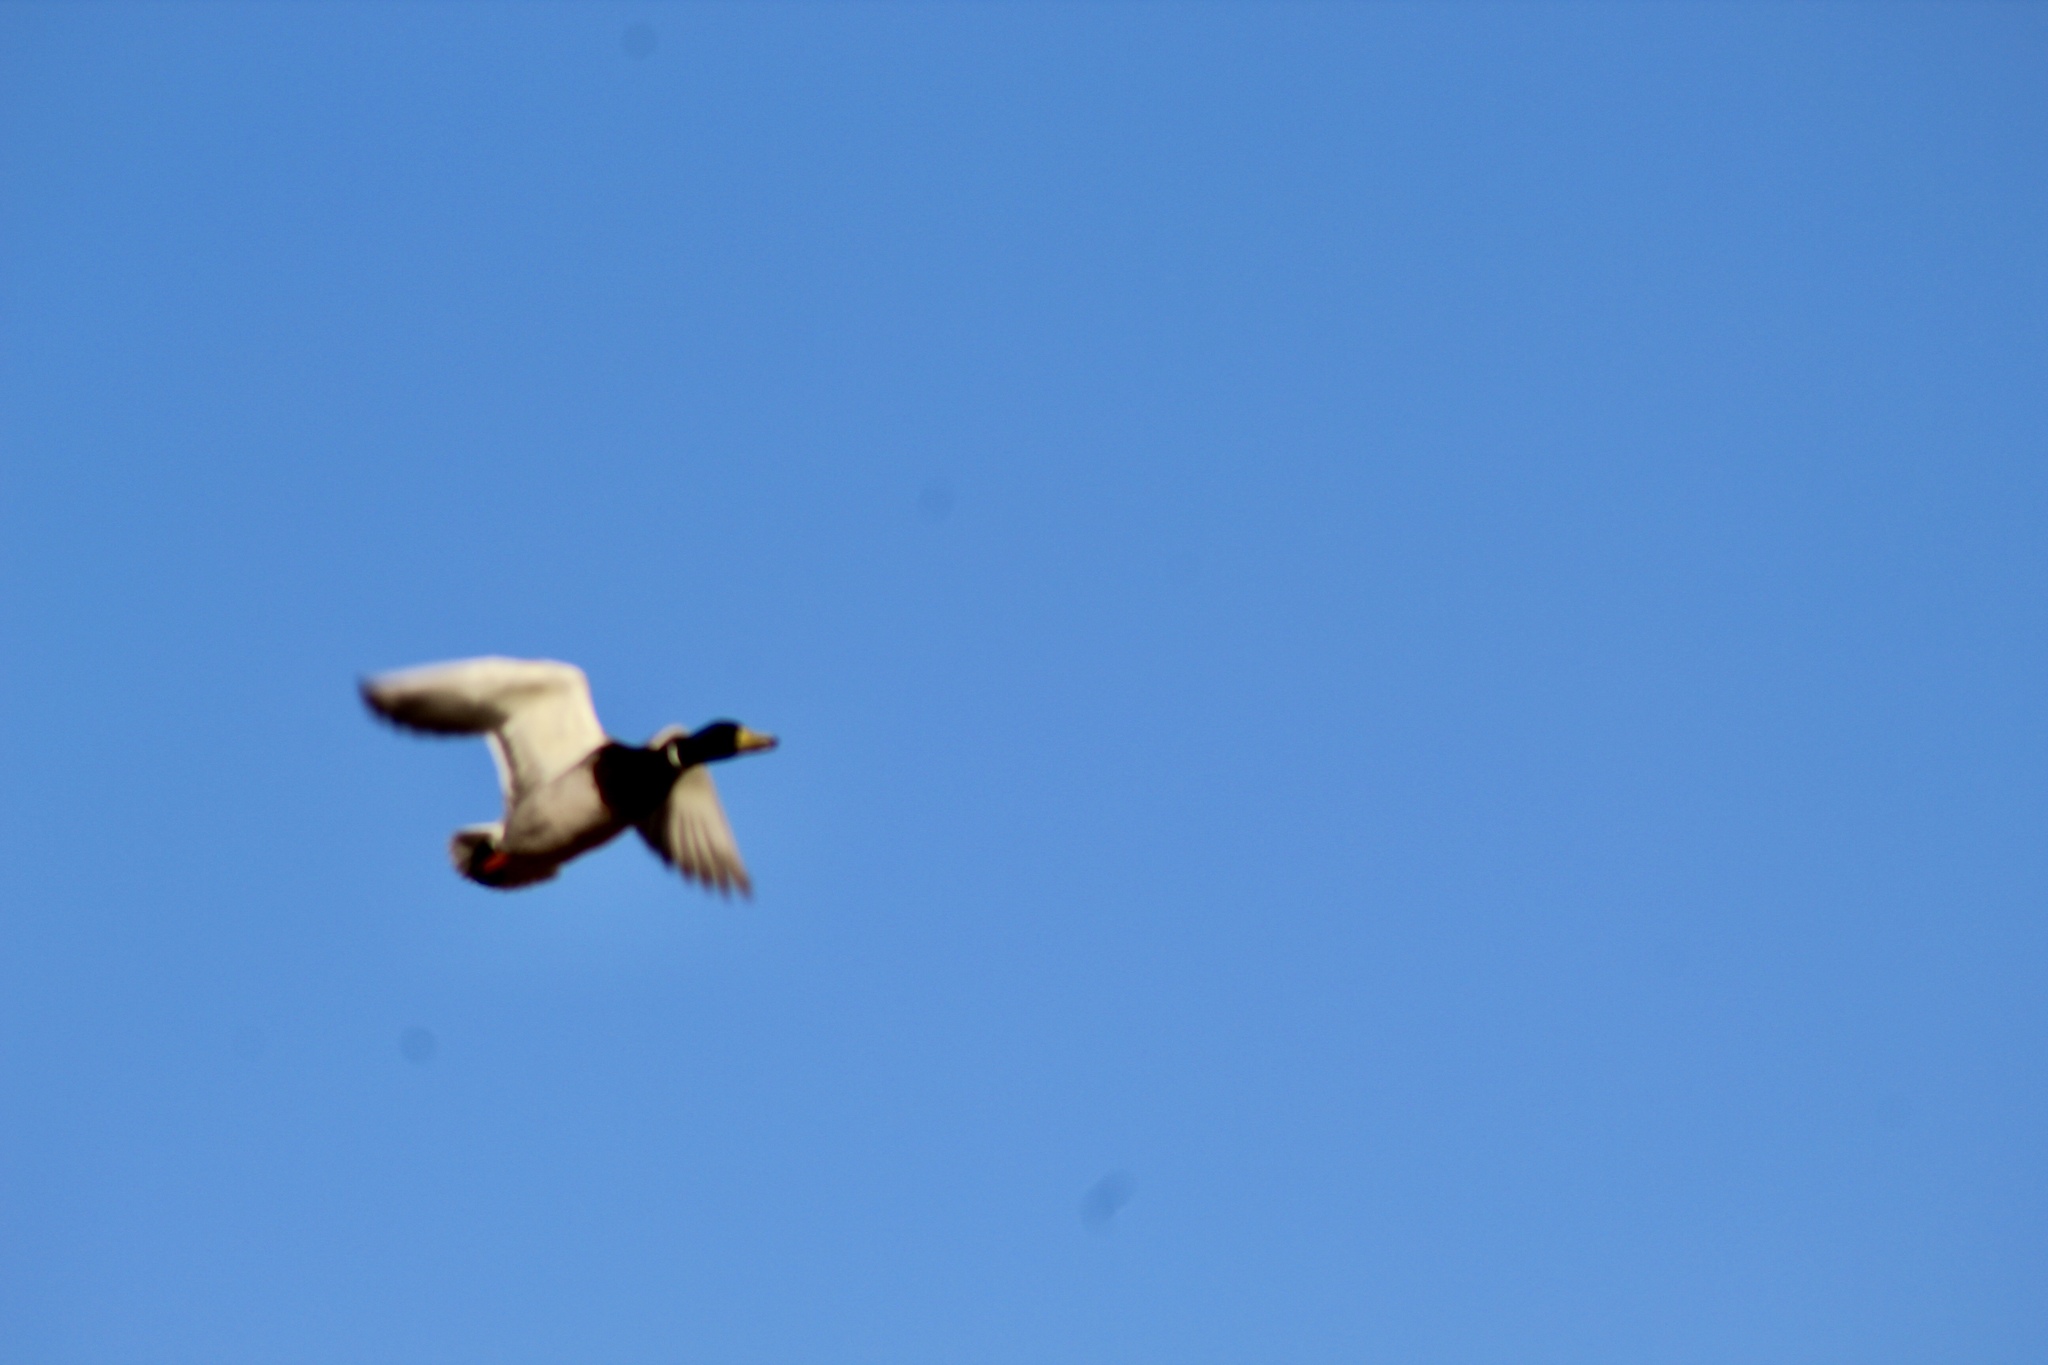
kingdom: Animalia
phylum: Chordata
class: Aves
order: Anseriformes
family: Anatidae
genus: Anas
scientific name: Anas platyrhynchos
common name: Mallard
